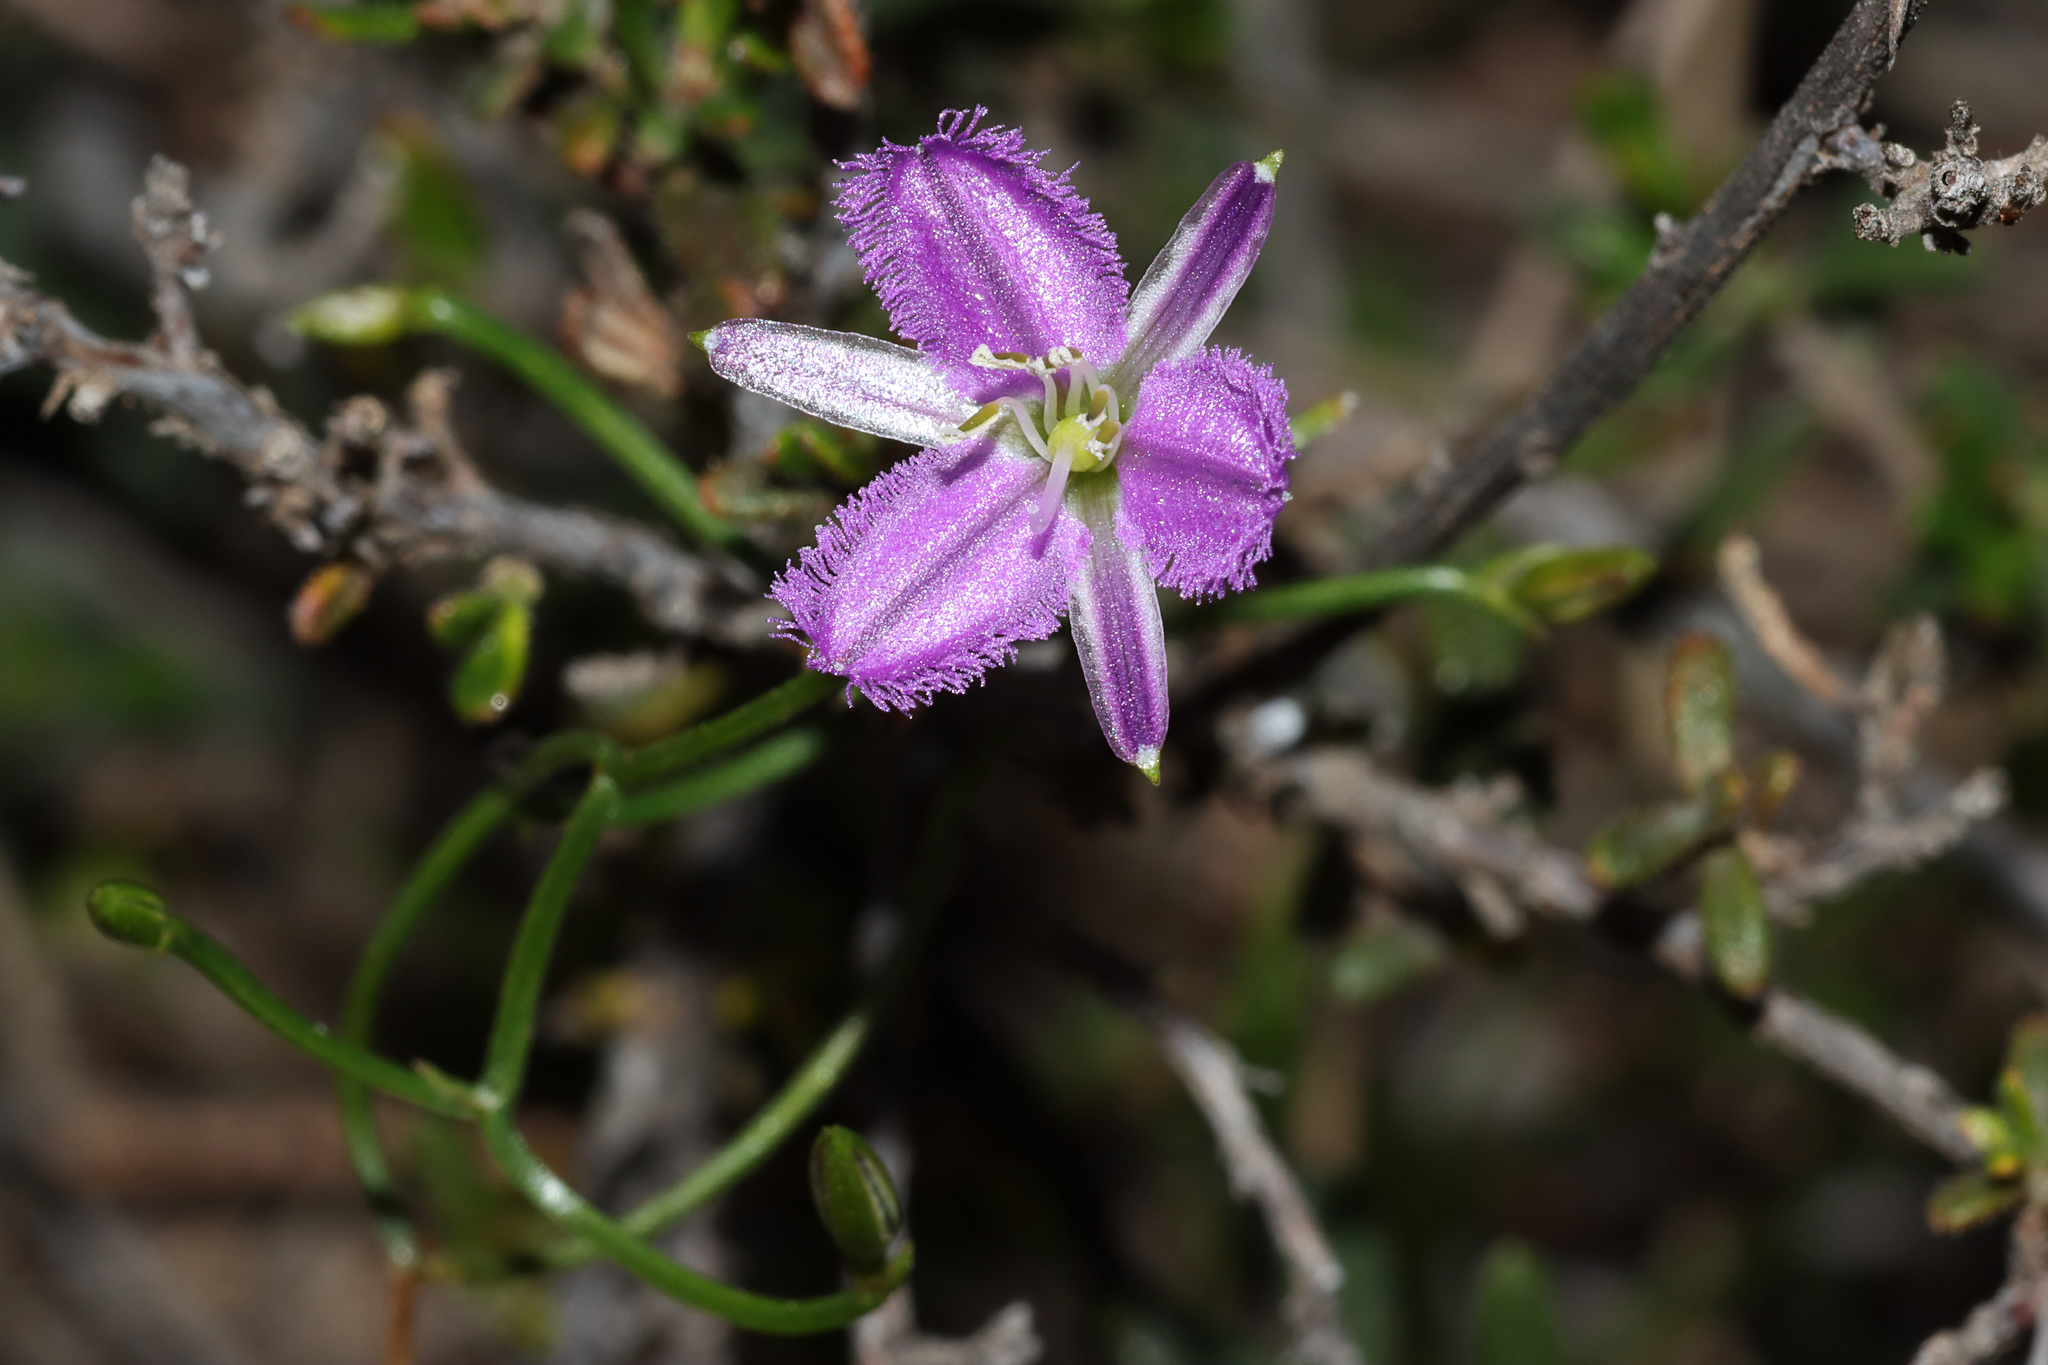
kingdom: Plantae
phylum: Tracheophyta
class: Liliopsida
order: Asparagales
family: Asparagaceae
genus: Thysanotus
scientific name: Thysanotus patersonii
